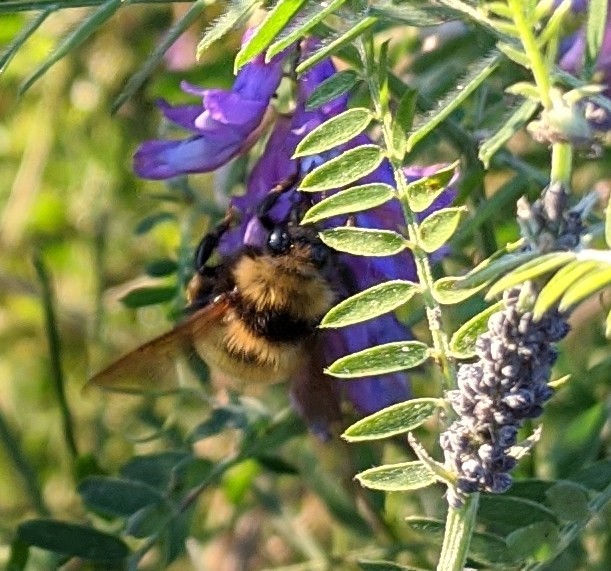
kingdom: Animalia
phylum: Arthropoda
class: Insecta
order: Hymenoptera
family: Apidae
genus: Bombus
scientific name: Bombus borealis
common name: Northern amber bumble bee
